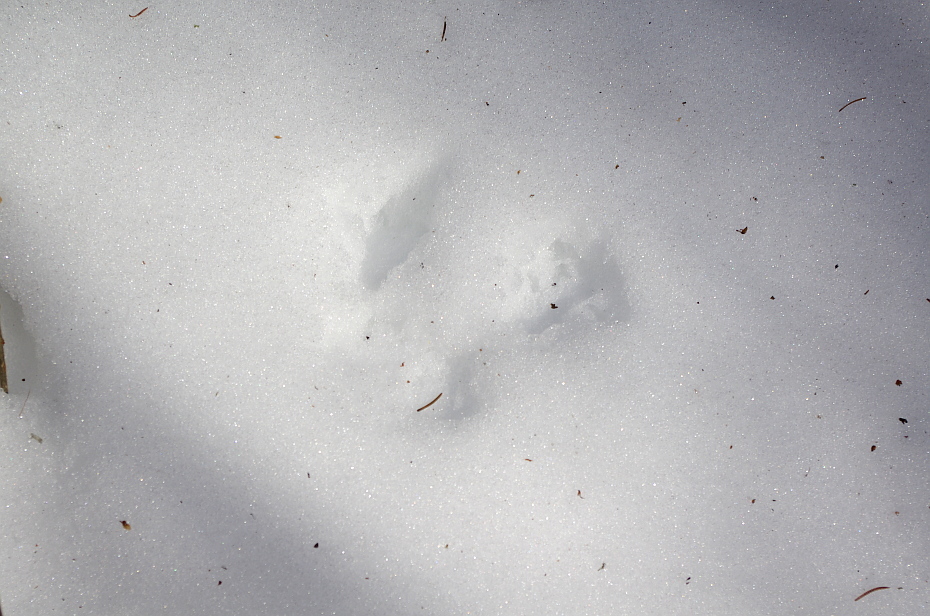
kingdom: Animalia
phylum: Chordata
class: Mammalia
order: Rodentia
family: Sciuridae
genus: Sciurus
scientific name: Sciurus vulgaris
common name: Eurasian red squirrel
